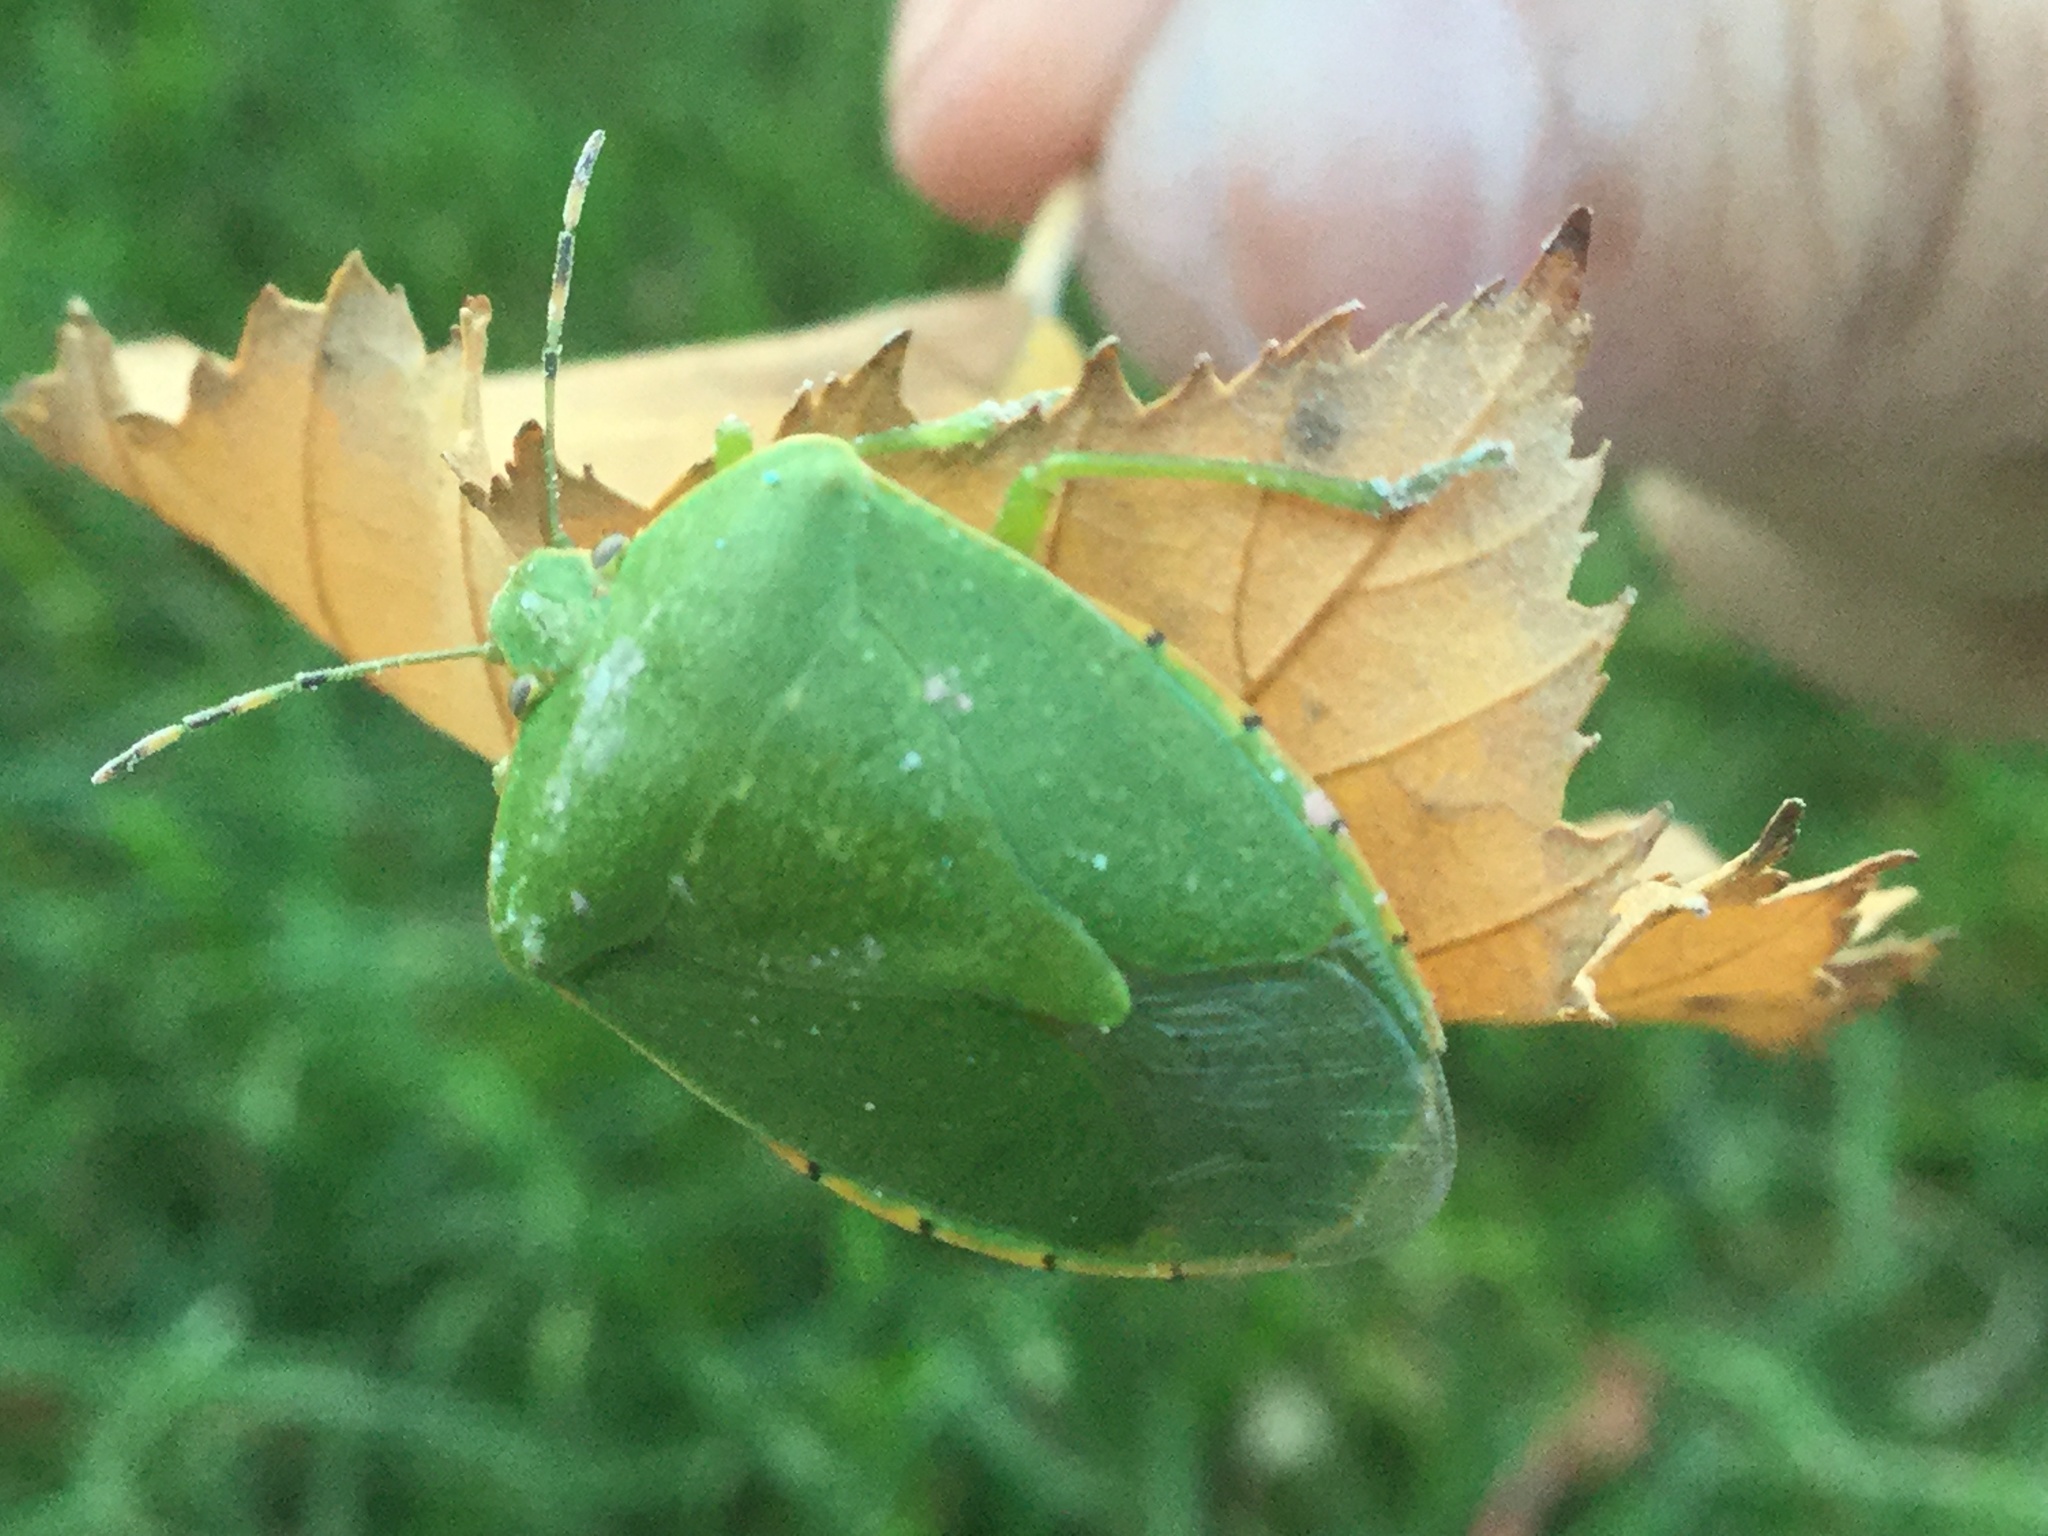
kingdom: Animalia
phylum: Arthropoda
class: Insecta
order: Hemiptera
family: Pentatomidae
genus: Chinavia
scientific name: Chinavia hilaris
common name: Green stink bug
